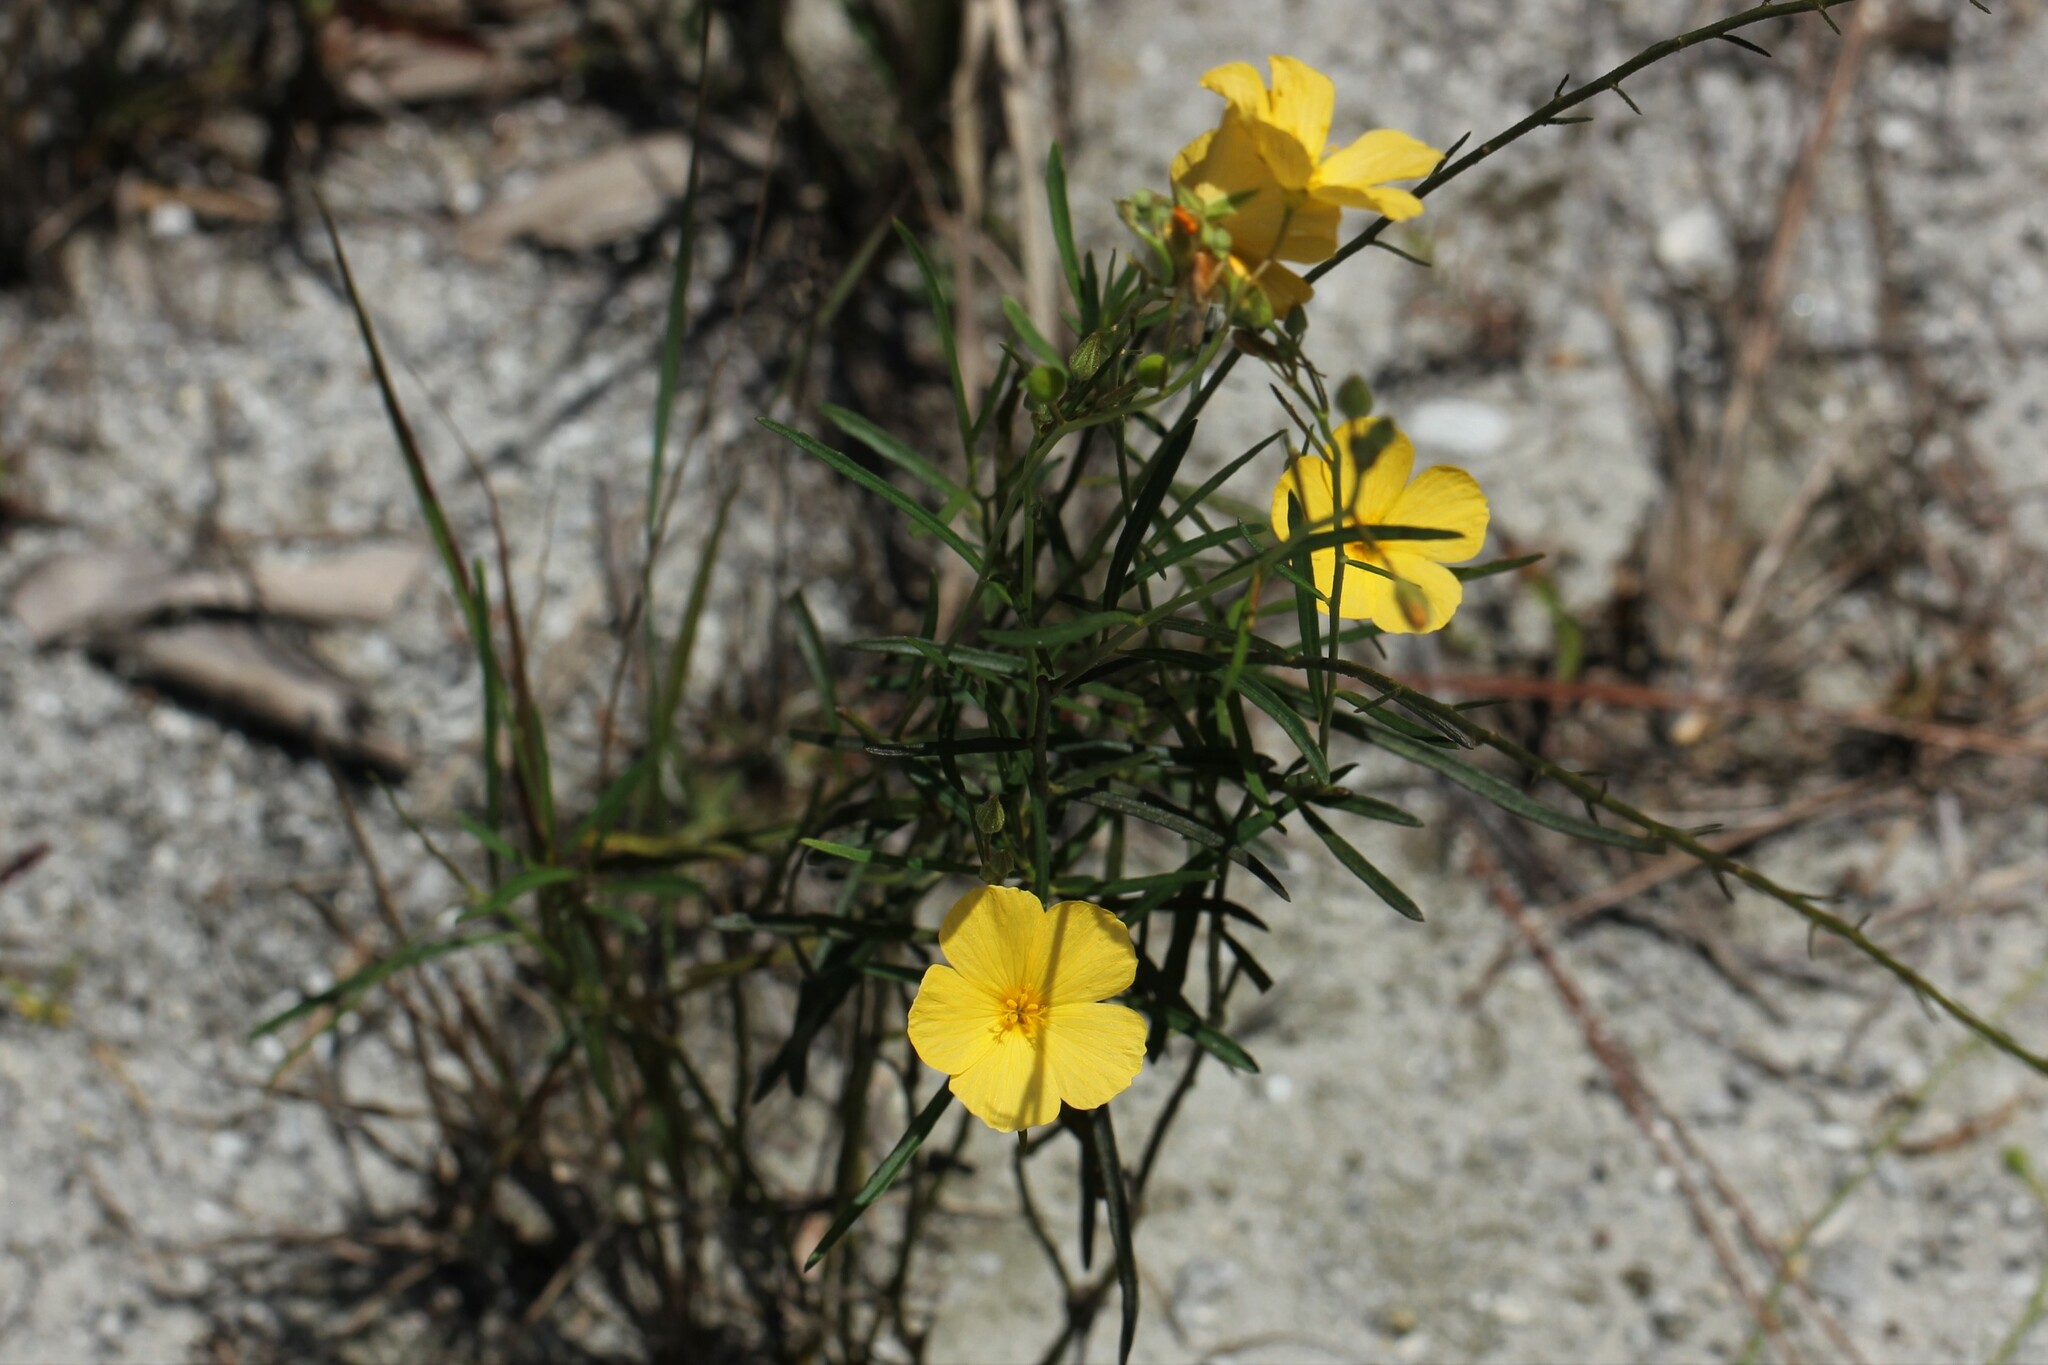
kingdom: Plantae
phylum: Tracheophyta
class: Magnoliopsida
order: Malpighiales
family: Turneraceae
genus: Piriqueta
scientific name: Piriqueta cistoides
